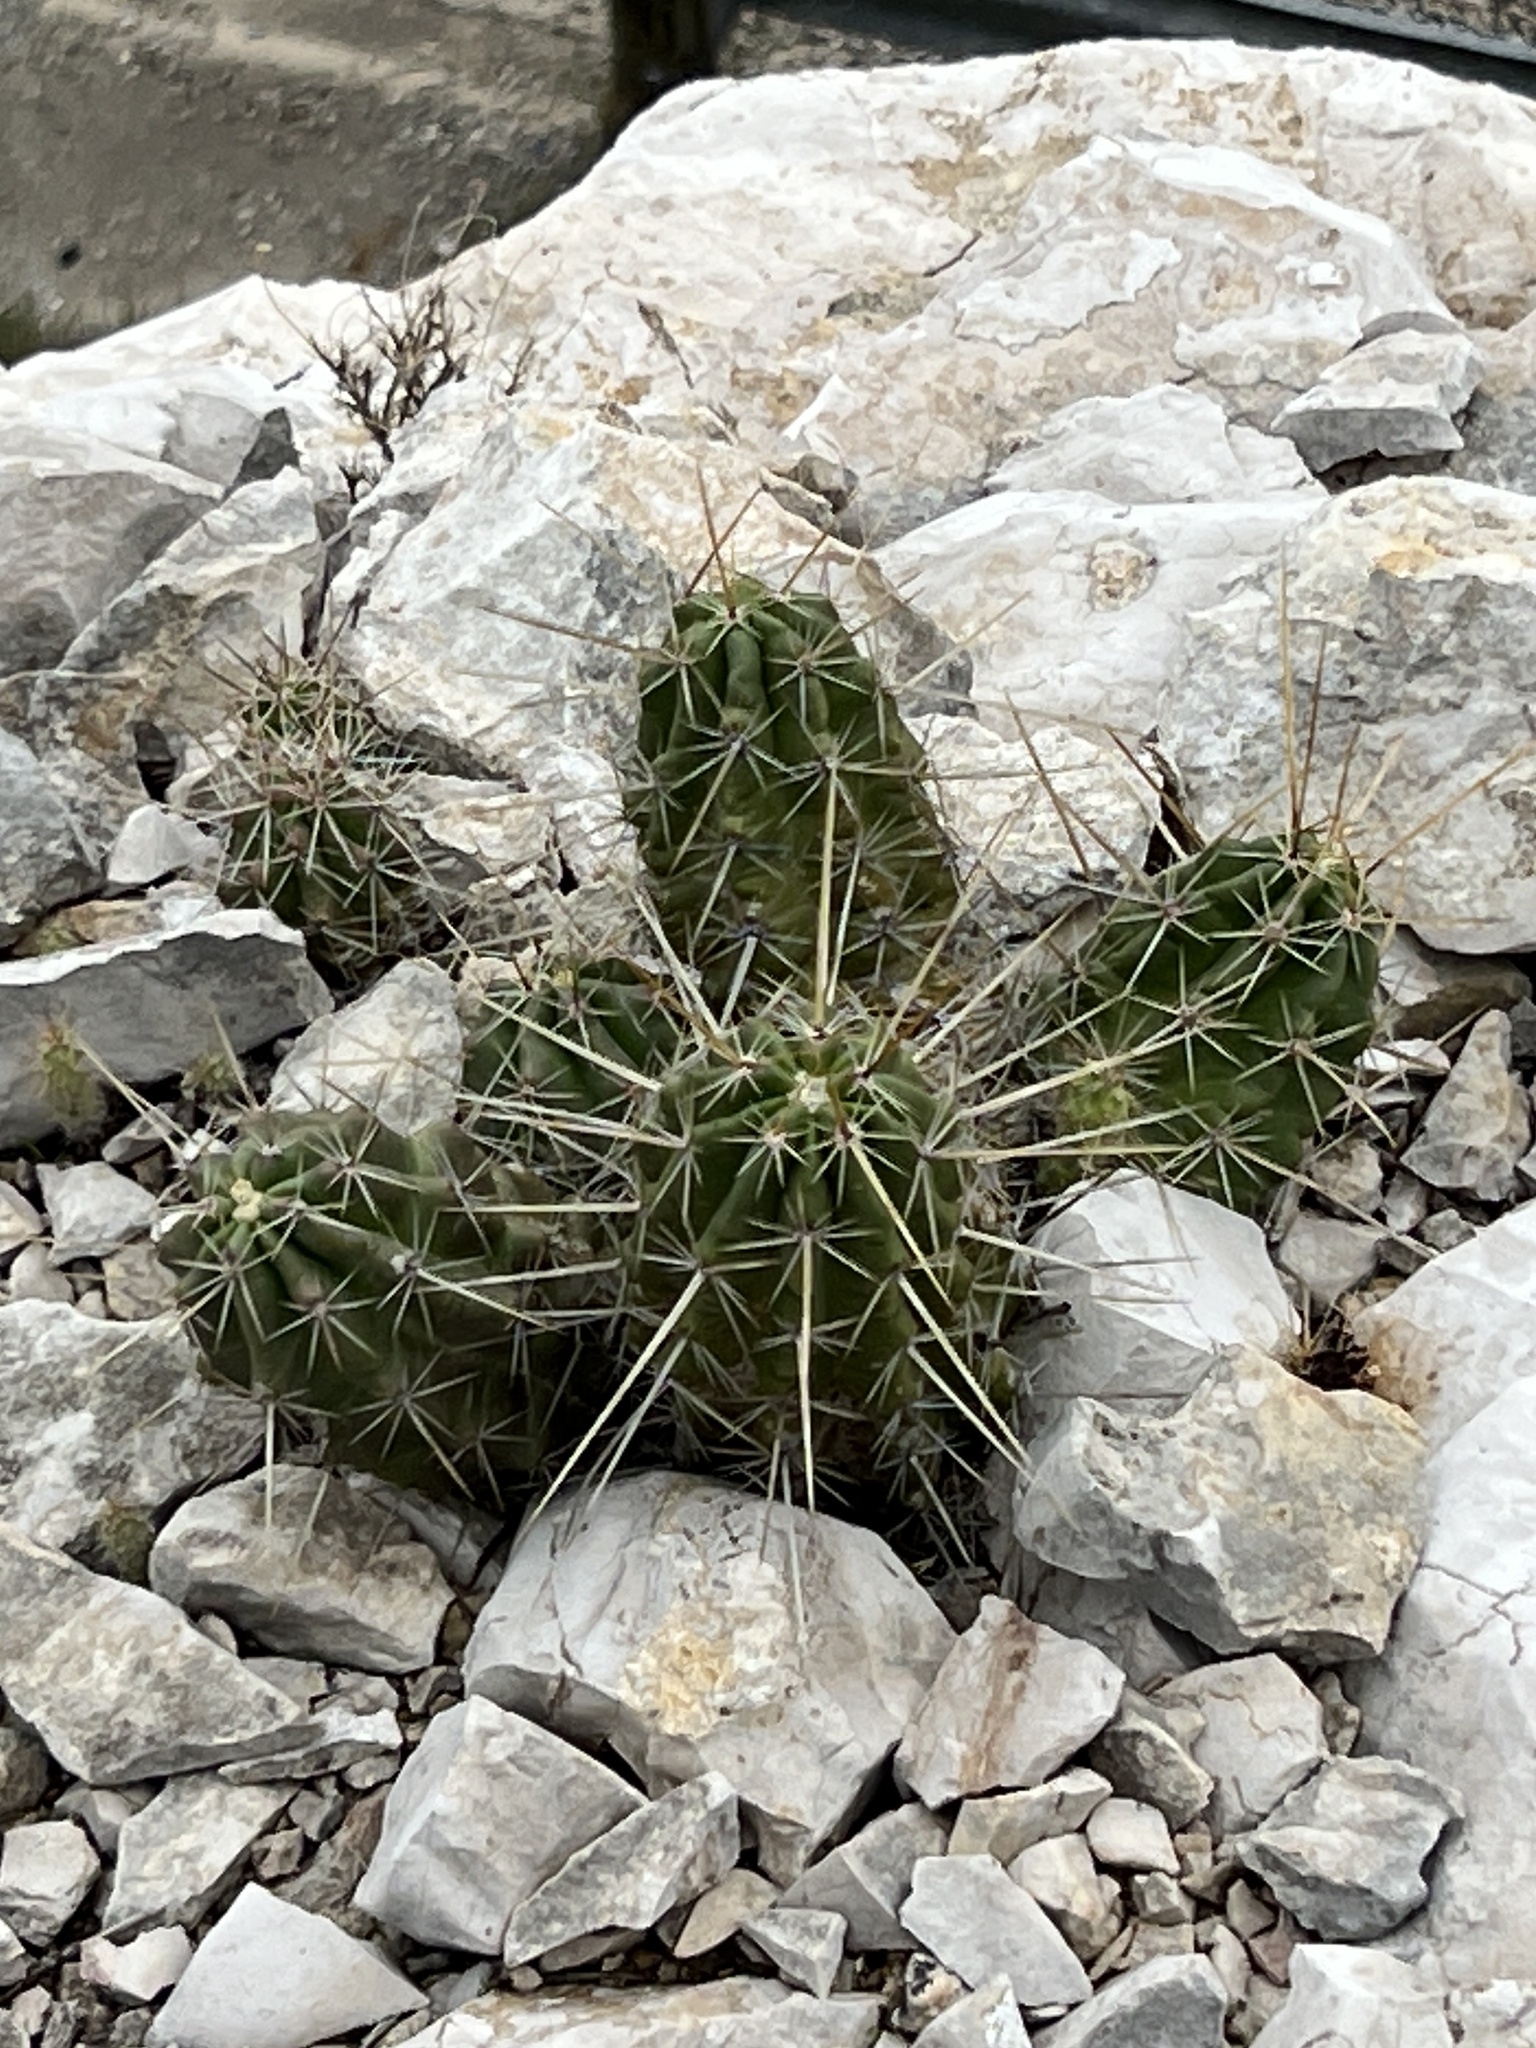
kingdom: Plantae
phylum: Tracheophyta
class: Magnoliopsida
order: Caryophyllales
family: Cactaceae
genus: Echinocereus
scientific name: Echinocereus enneacanthus
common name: Pitaya
